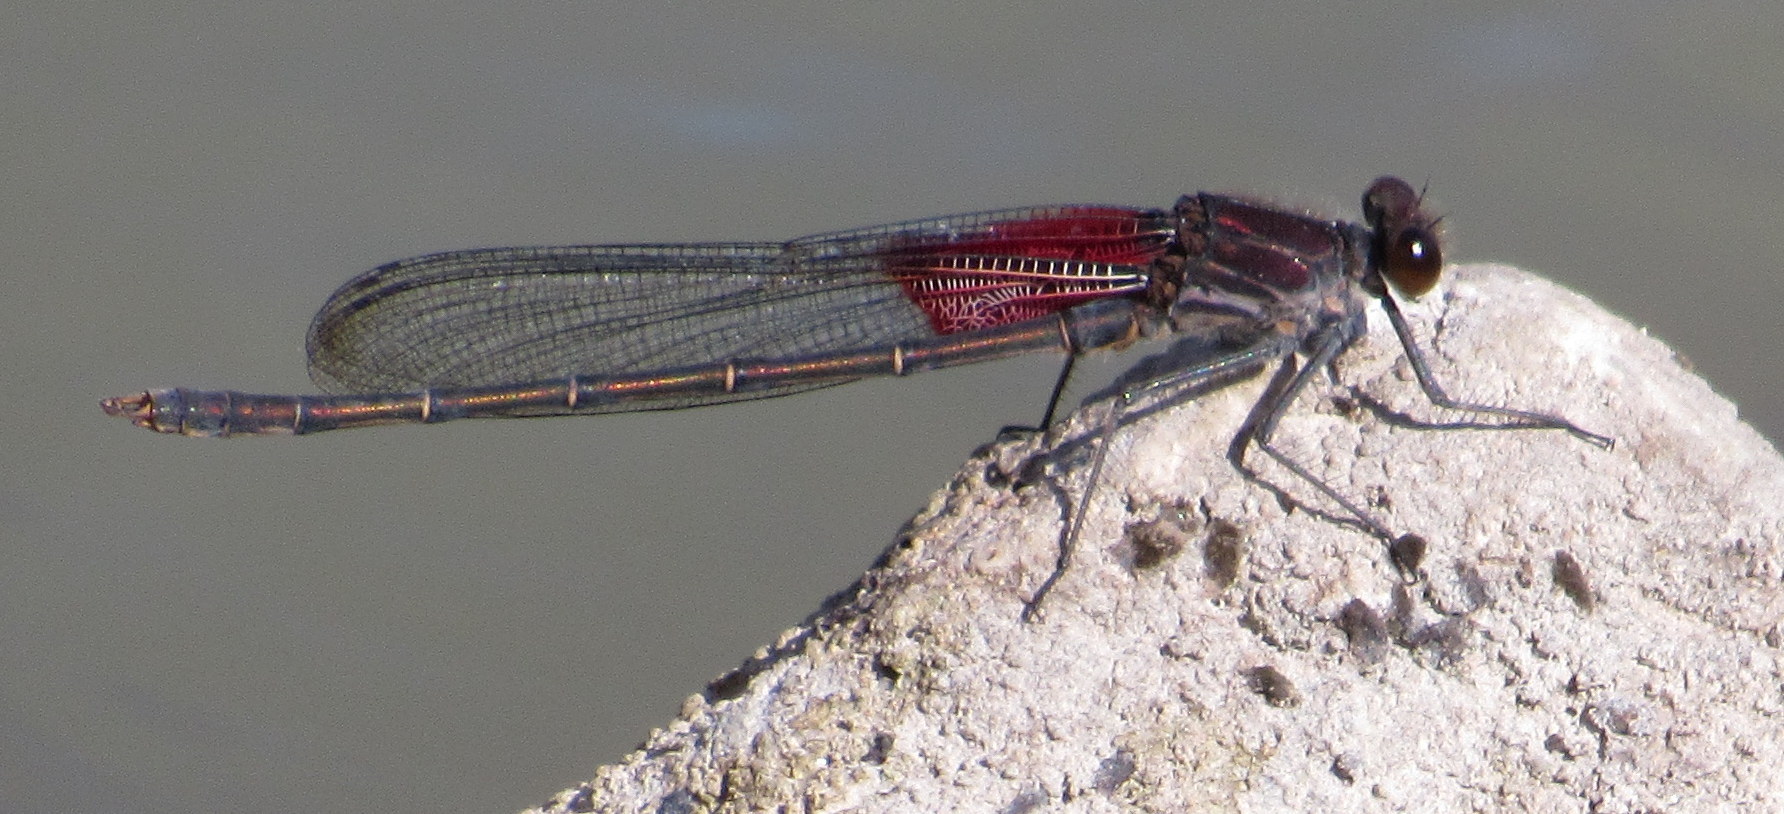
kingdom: Animalia
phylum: Arthropoda
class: Insecta
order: Odonata
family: Calopterygidae
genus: Hetaerina
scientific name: Hetaerina americana
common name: American rubyspot
